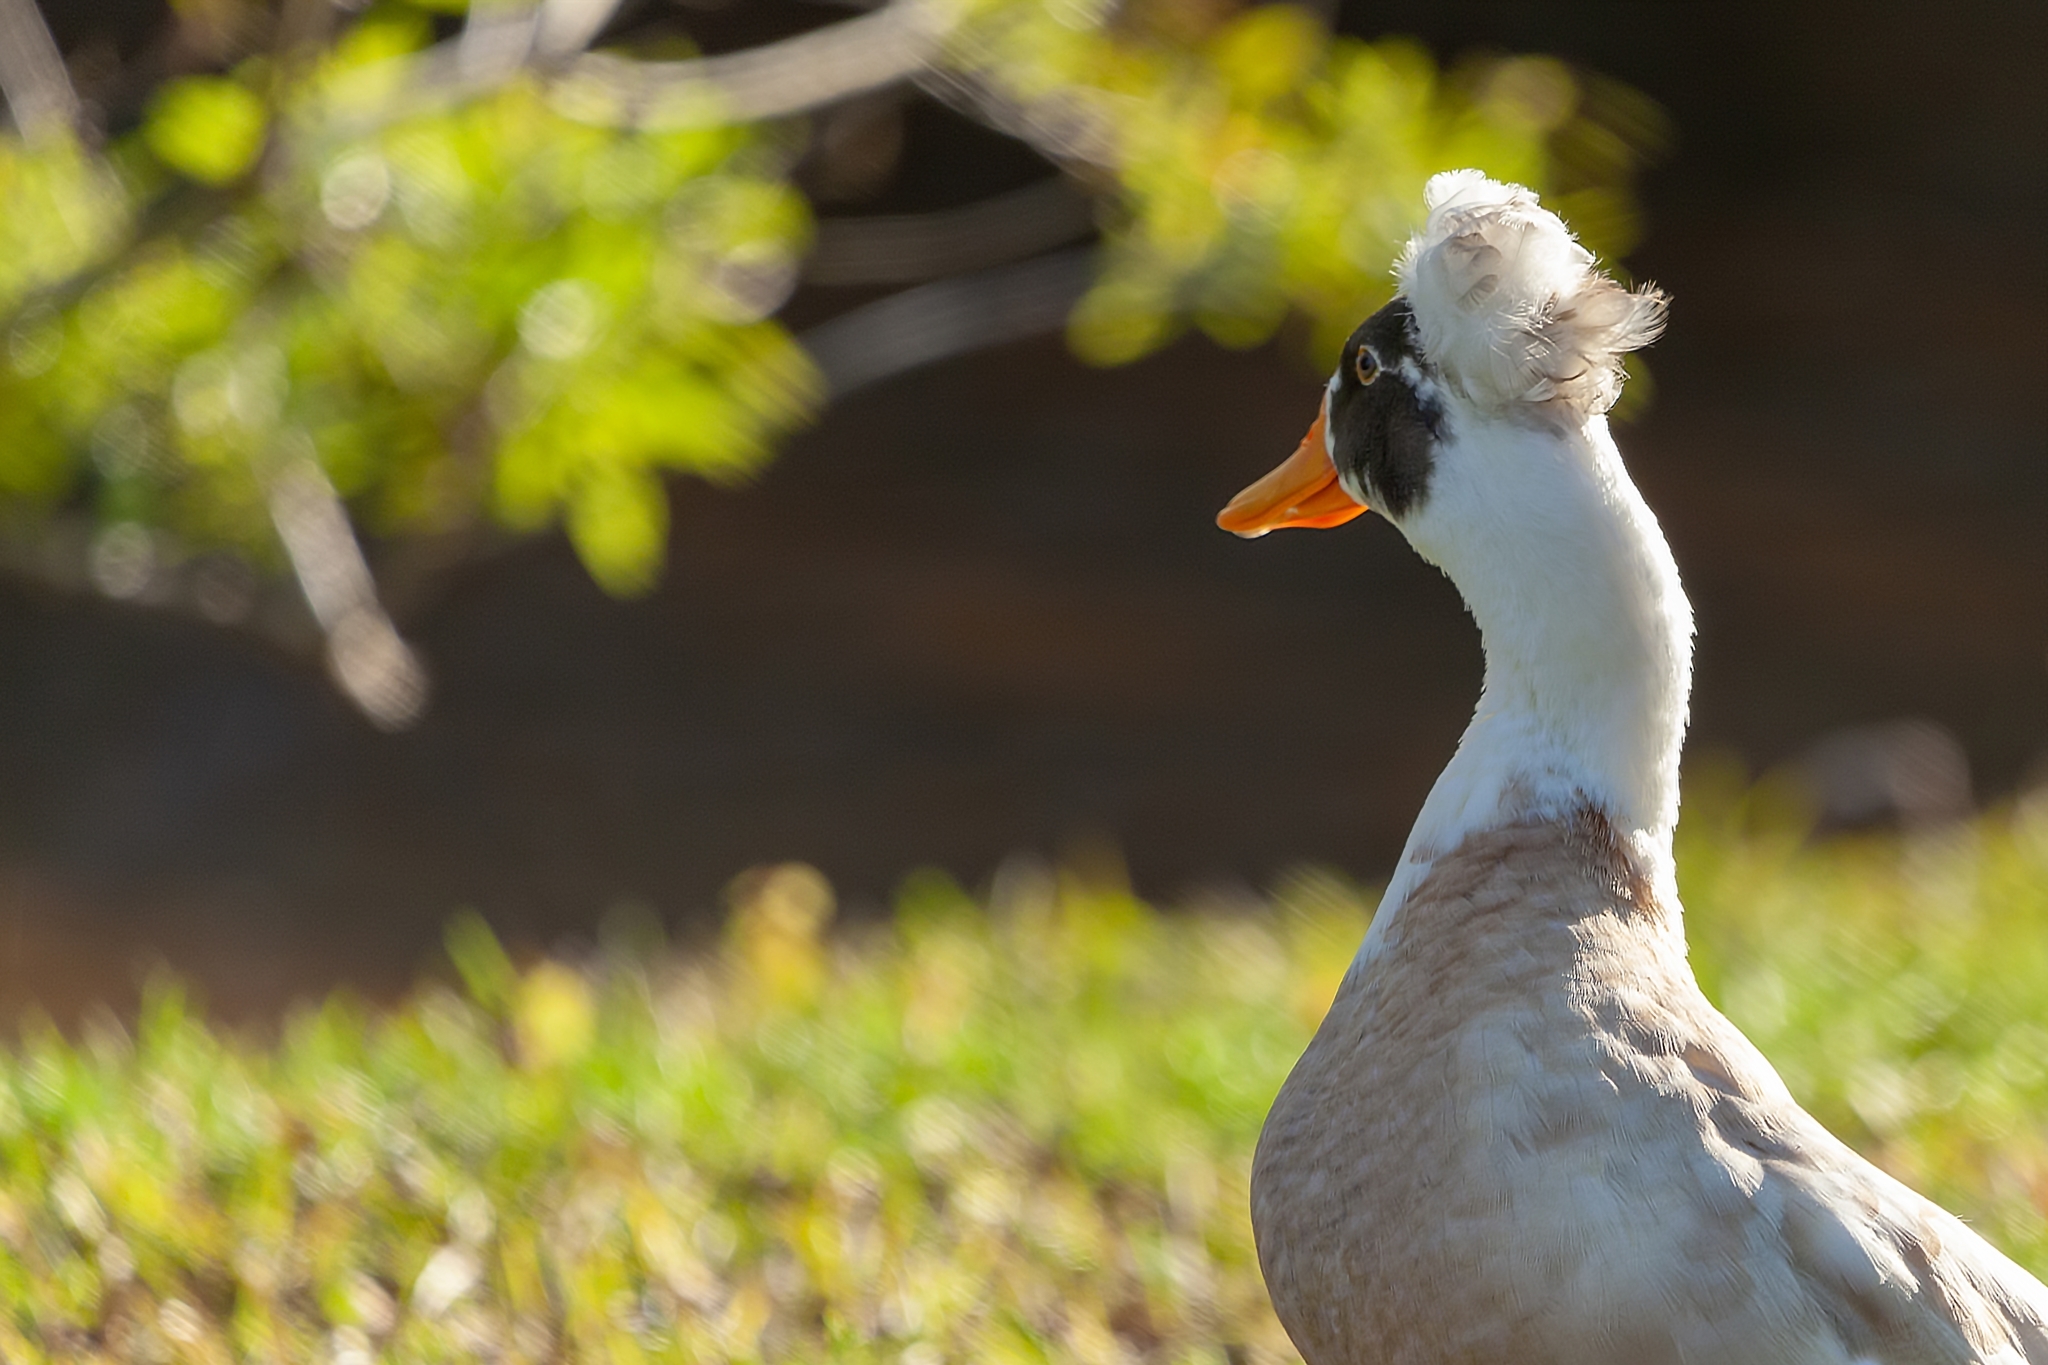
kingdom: Animalia
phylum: Chordata
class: Aves
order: Anseriformes
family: Anatidae
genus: Anas
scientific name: Anas platyrhynchos
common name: Mallard
